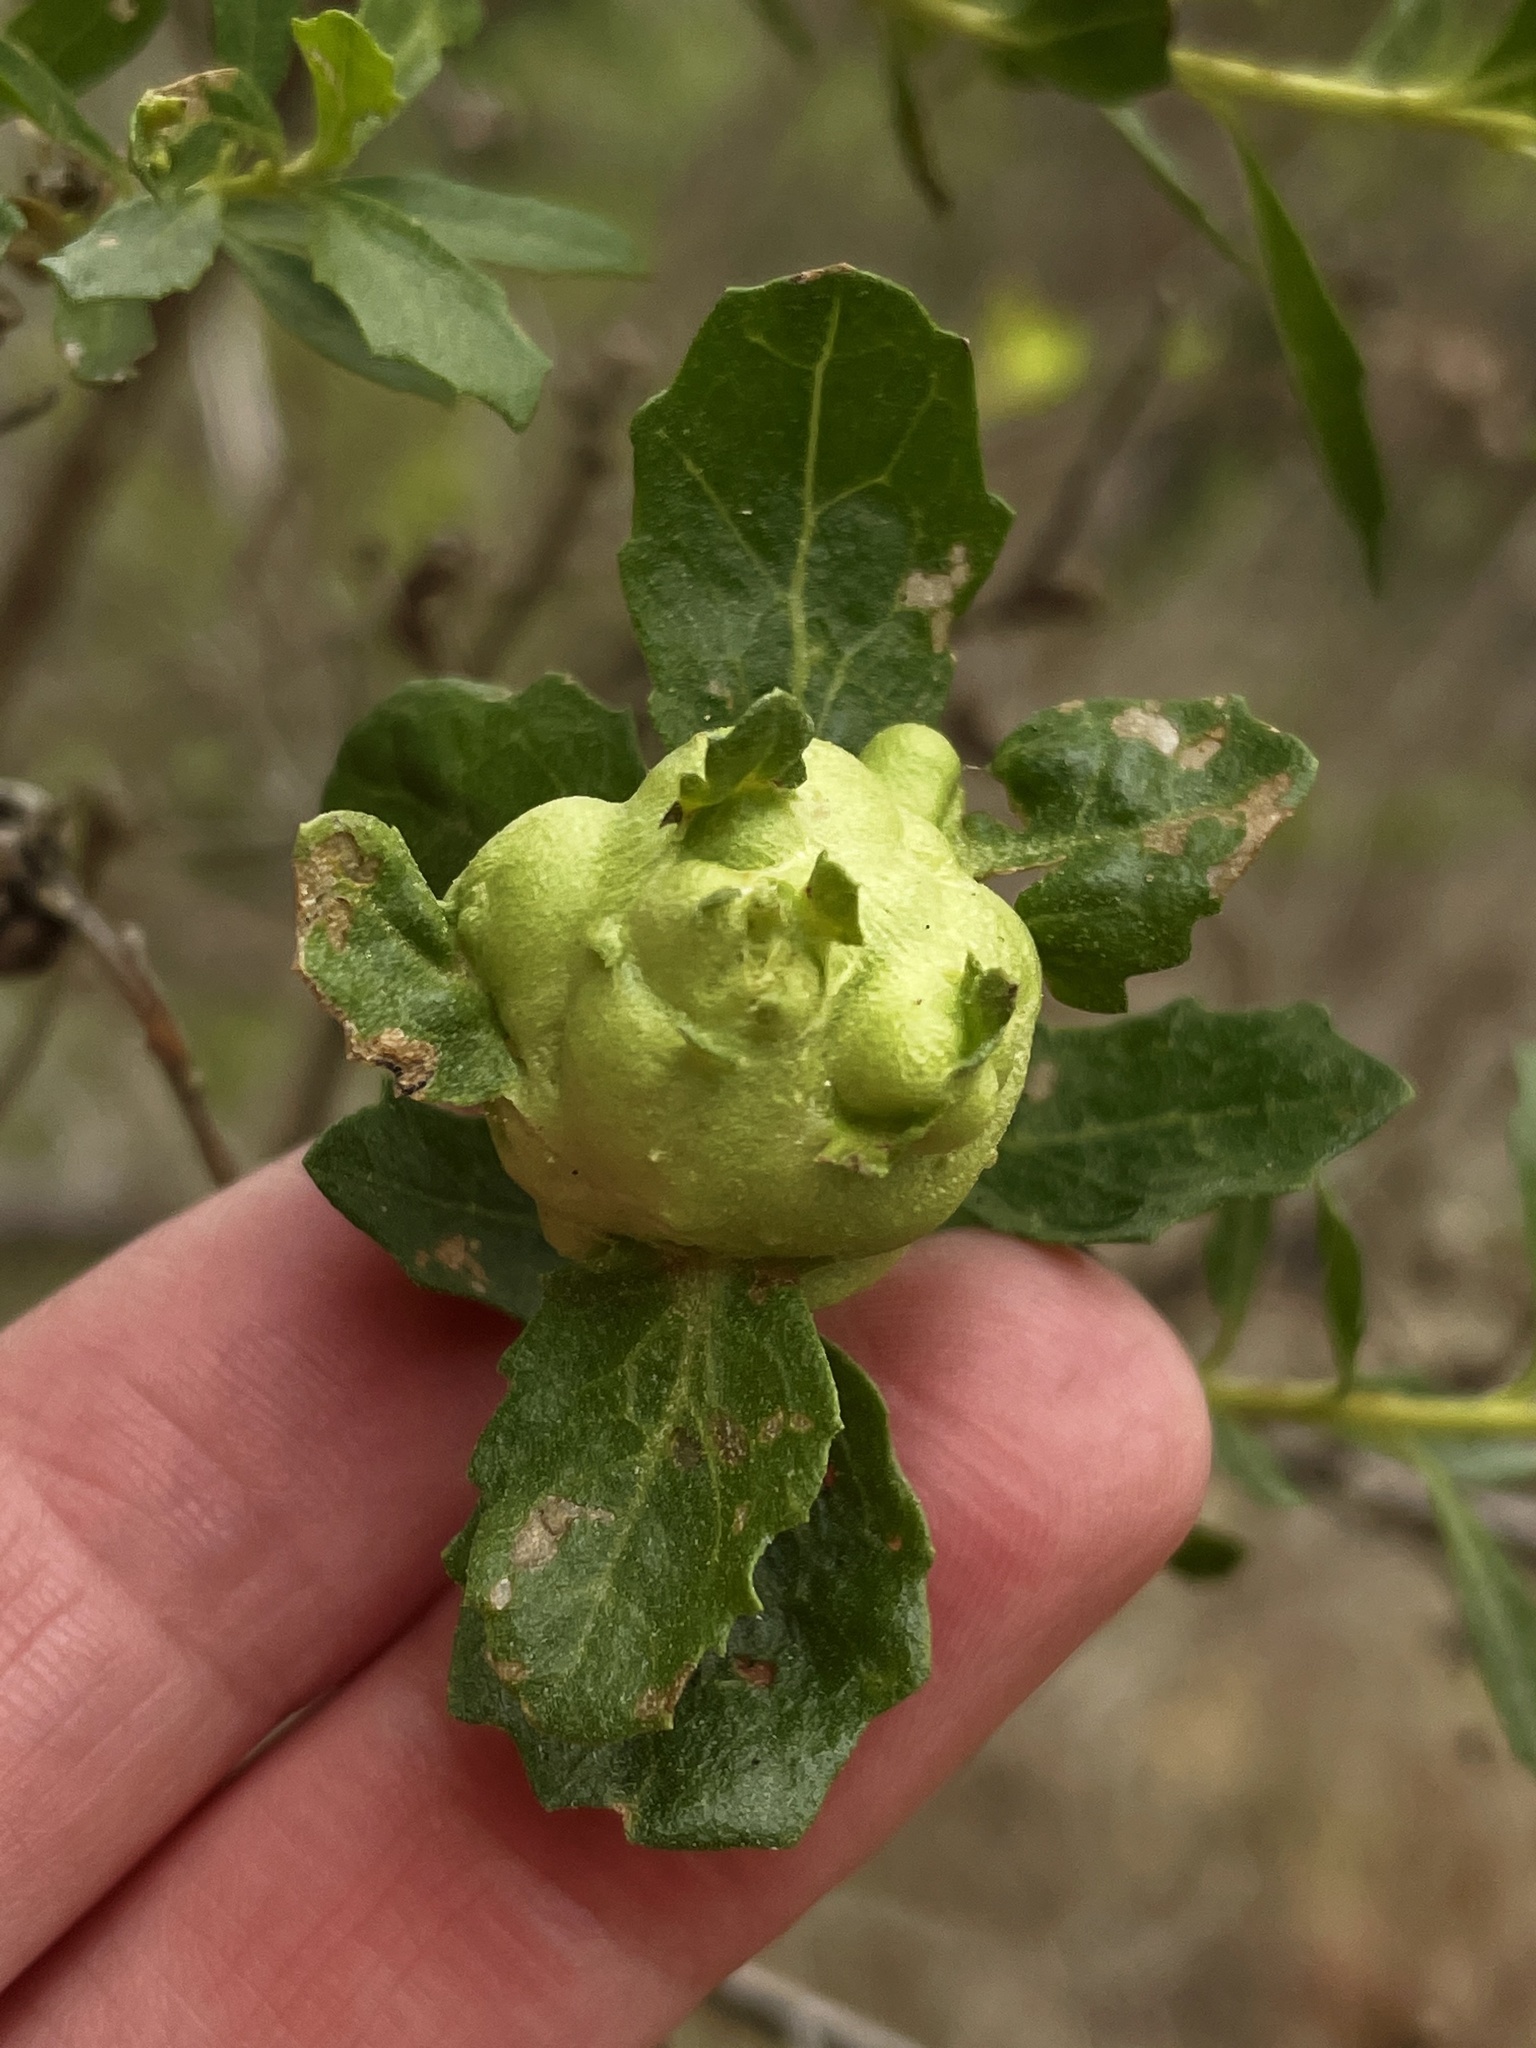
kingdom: Animalia
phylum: Arthropoda
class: Insecta
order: Diptera
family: Cecidomyiidae
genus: Rhopalomyia
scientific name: Rhopalomyia californica
